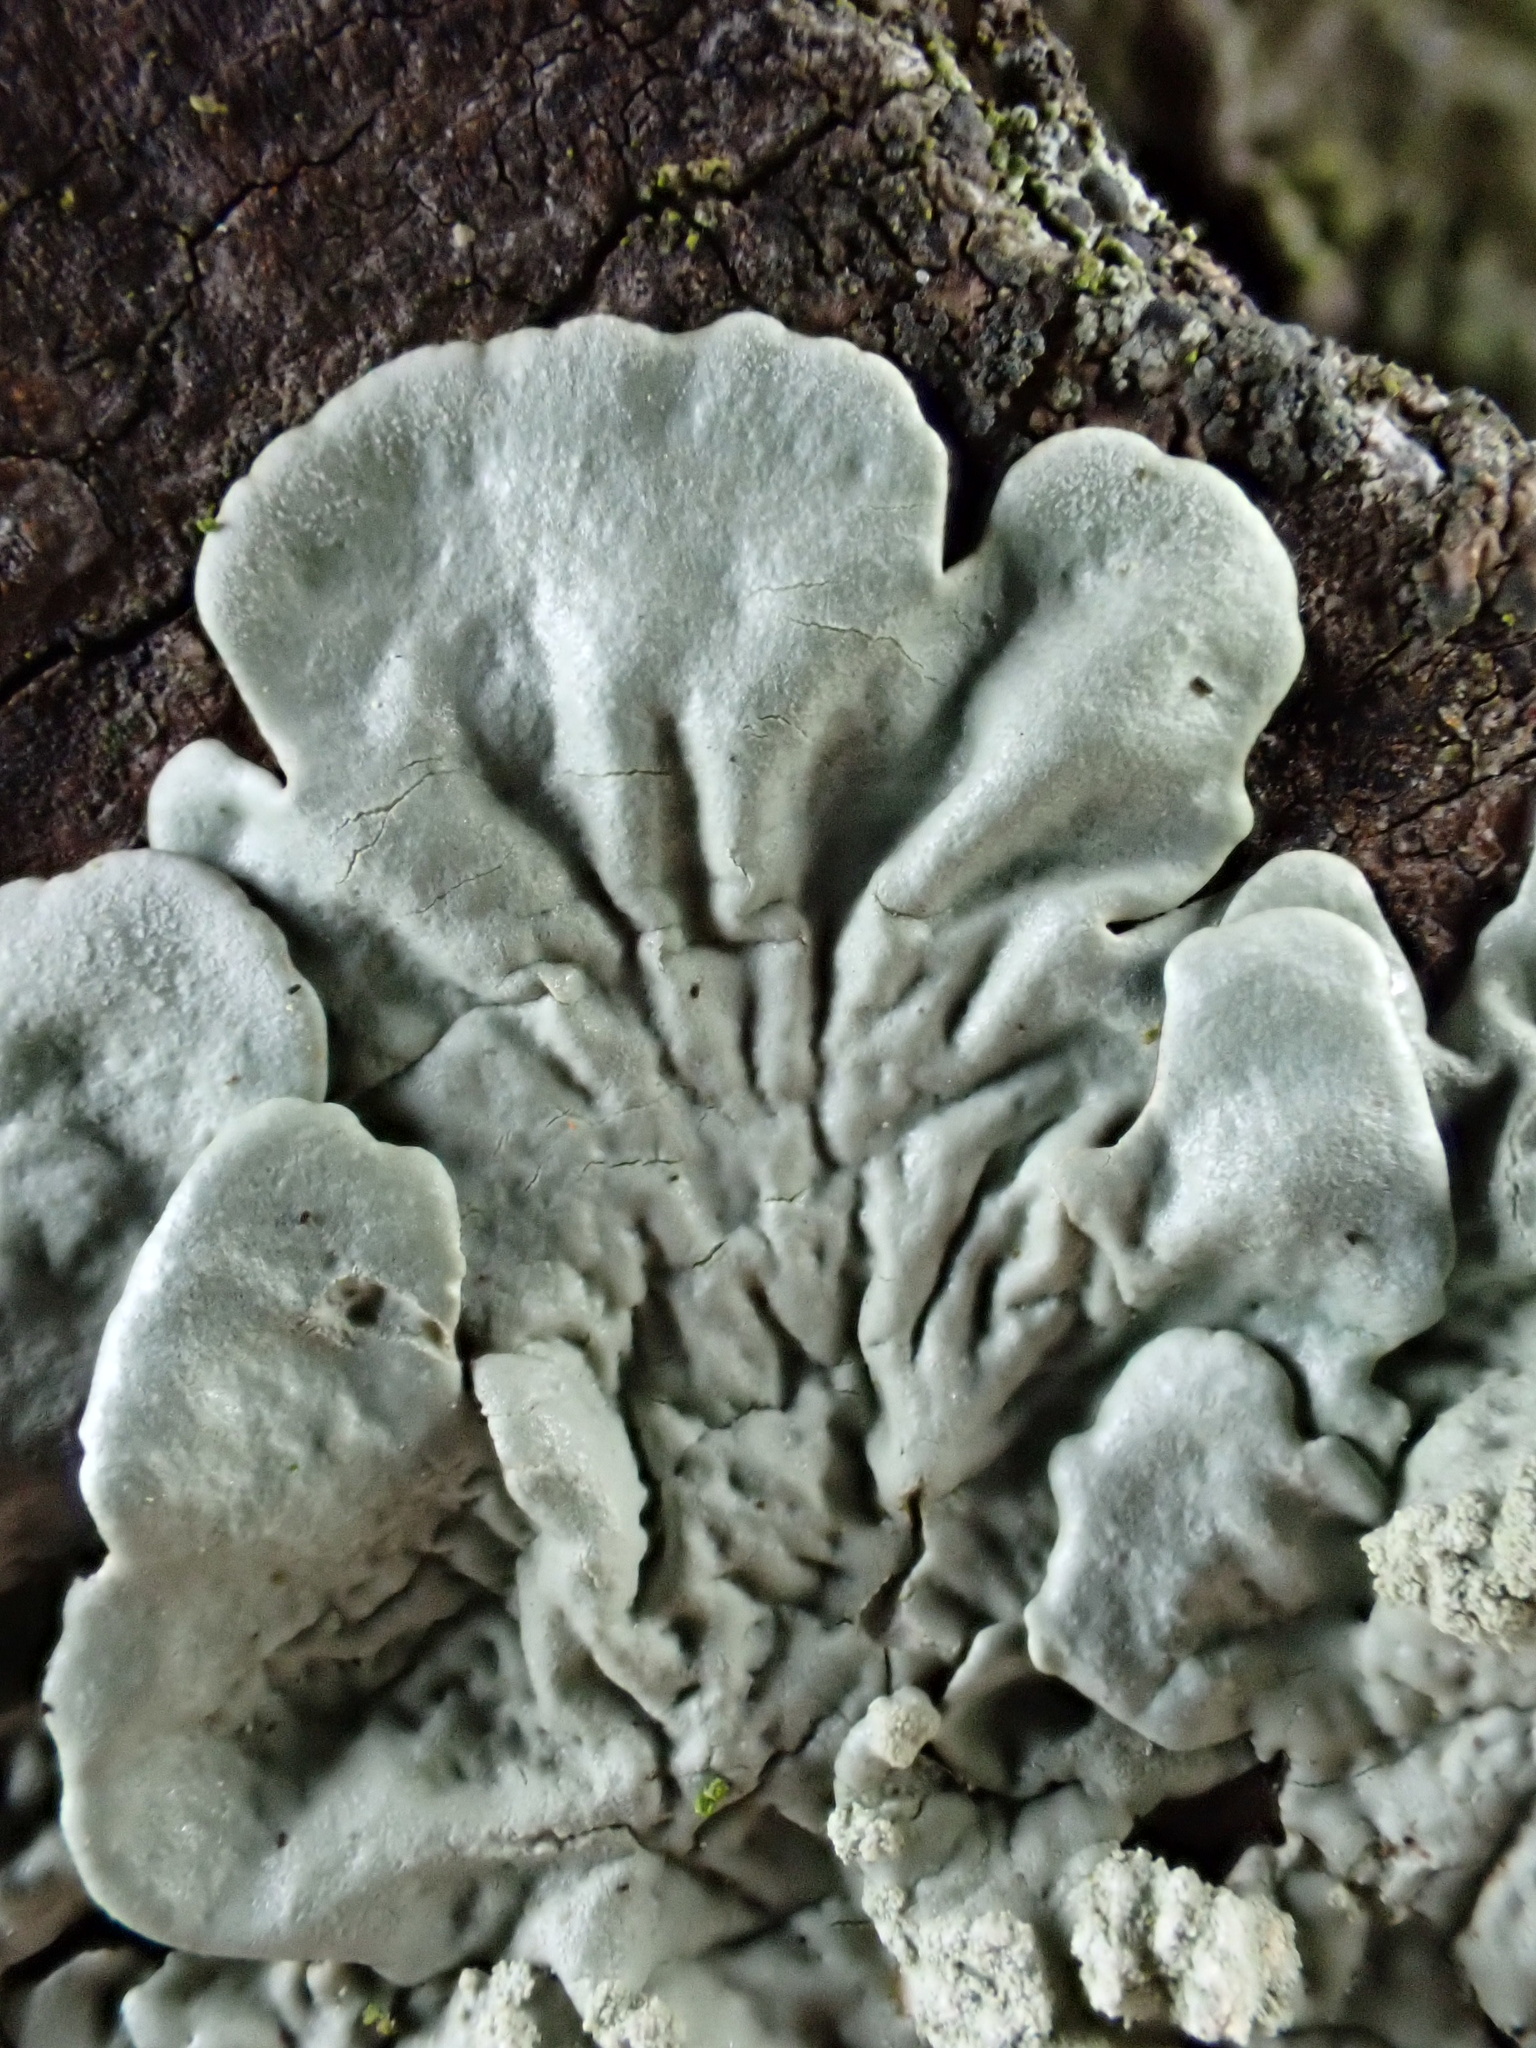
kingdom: Fungi
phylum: Ascomycota
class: Lecanoromycetes
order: Lecanorales
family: Parmeliaceae
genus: Flavoparmelia
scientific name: Flavoparmelia soredians
